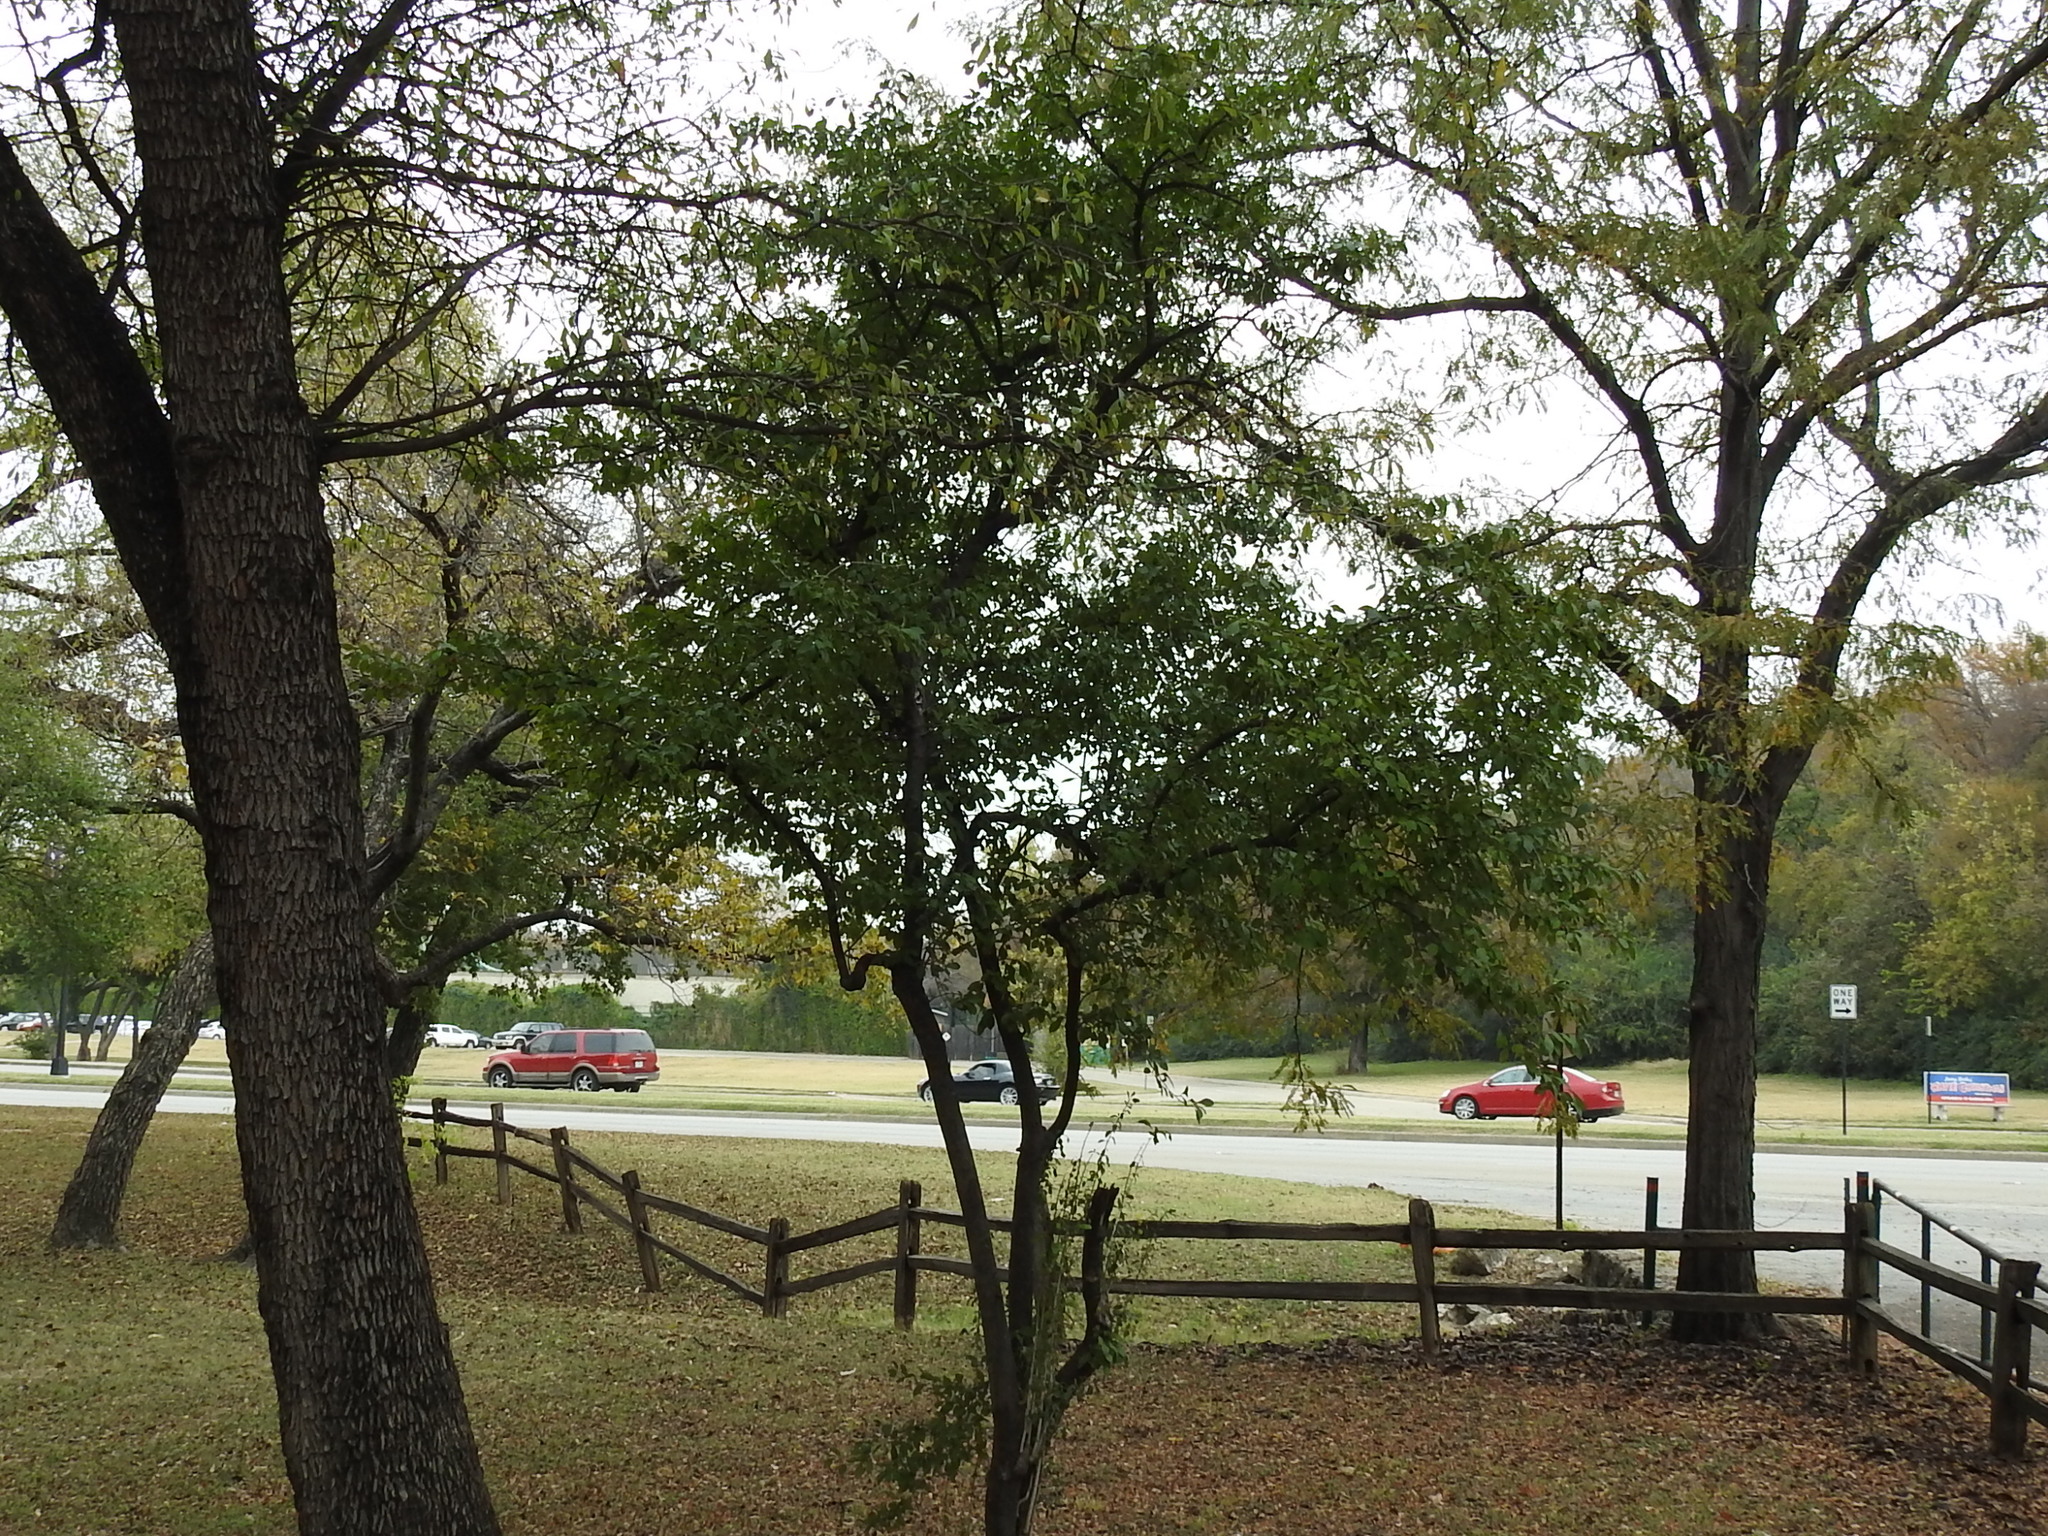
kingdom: Plantae
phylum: Tracheophyta
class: Magnoliopsida
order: Aquifoliales
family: Aquifoliaceae
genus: Ilex
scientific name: Ilex decidua
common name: Possum-haw
